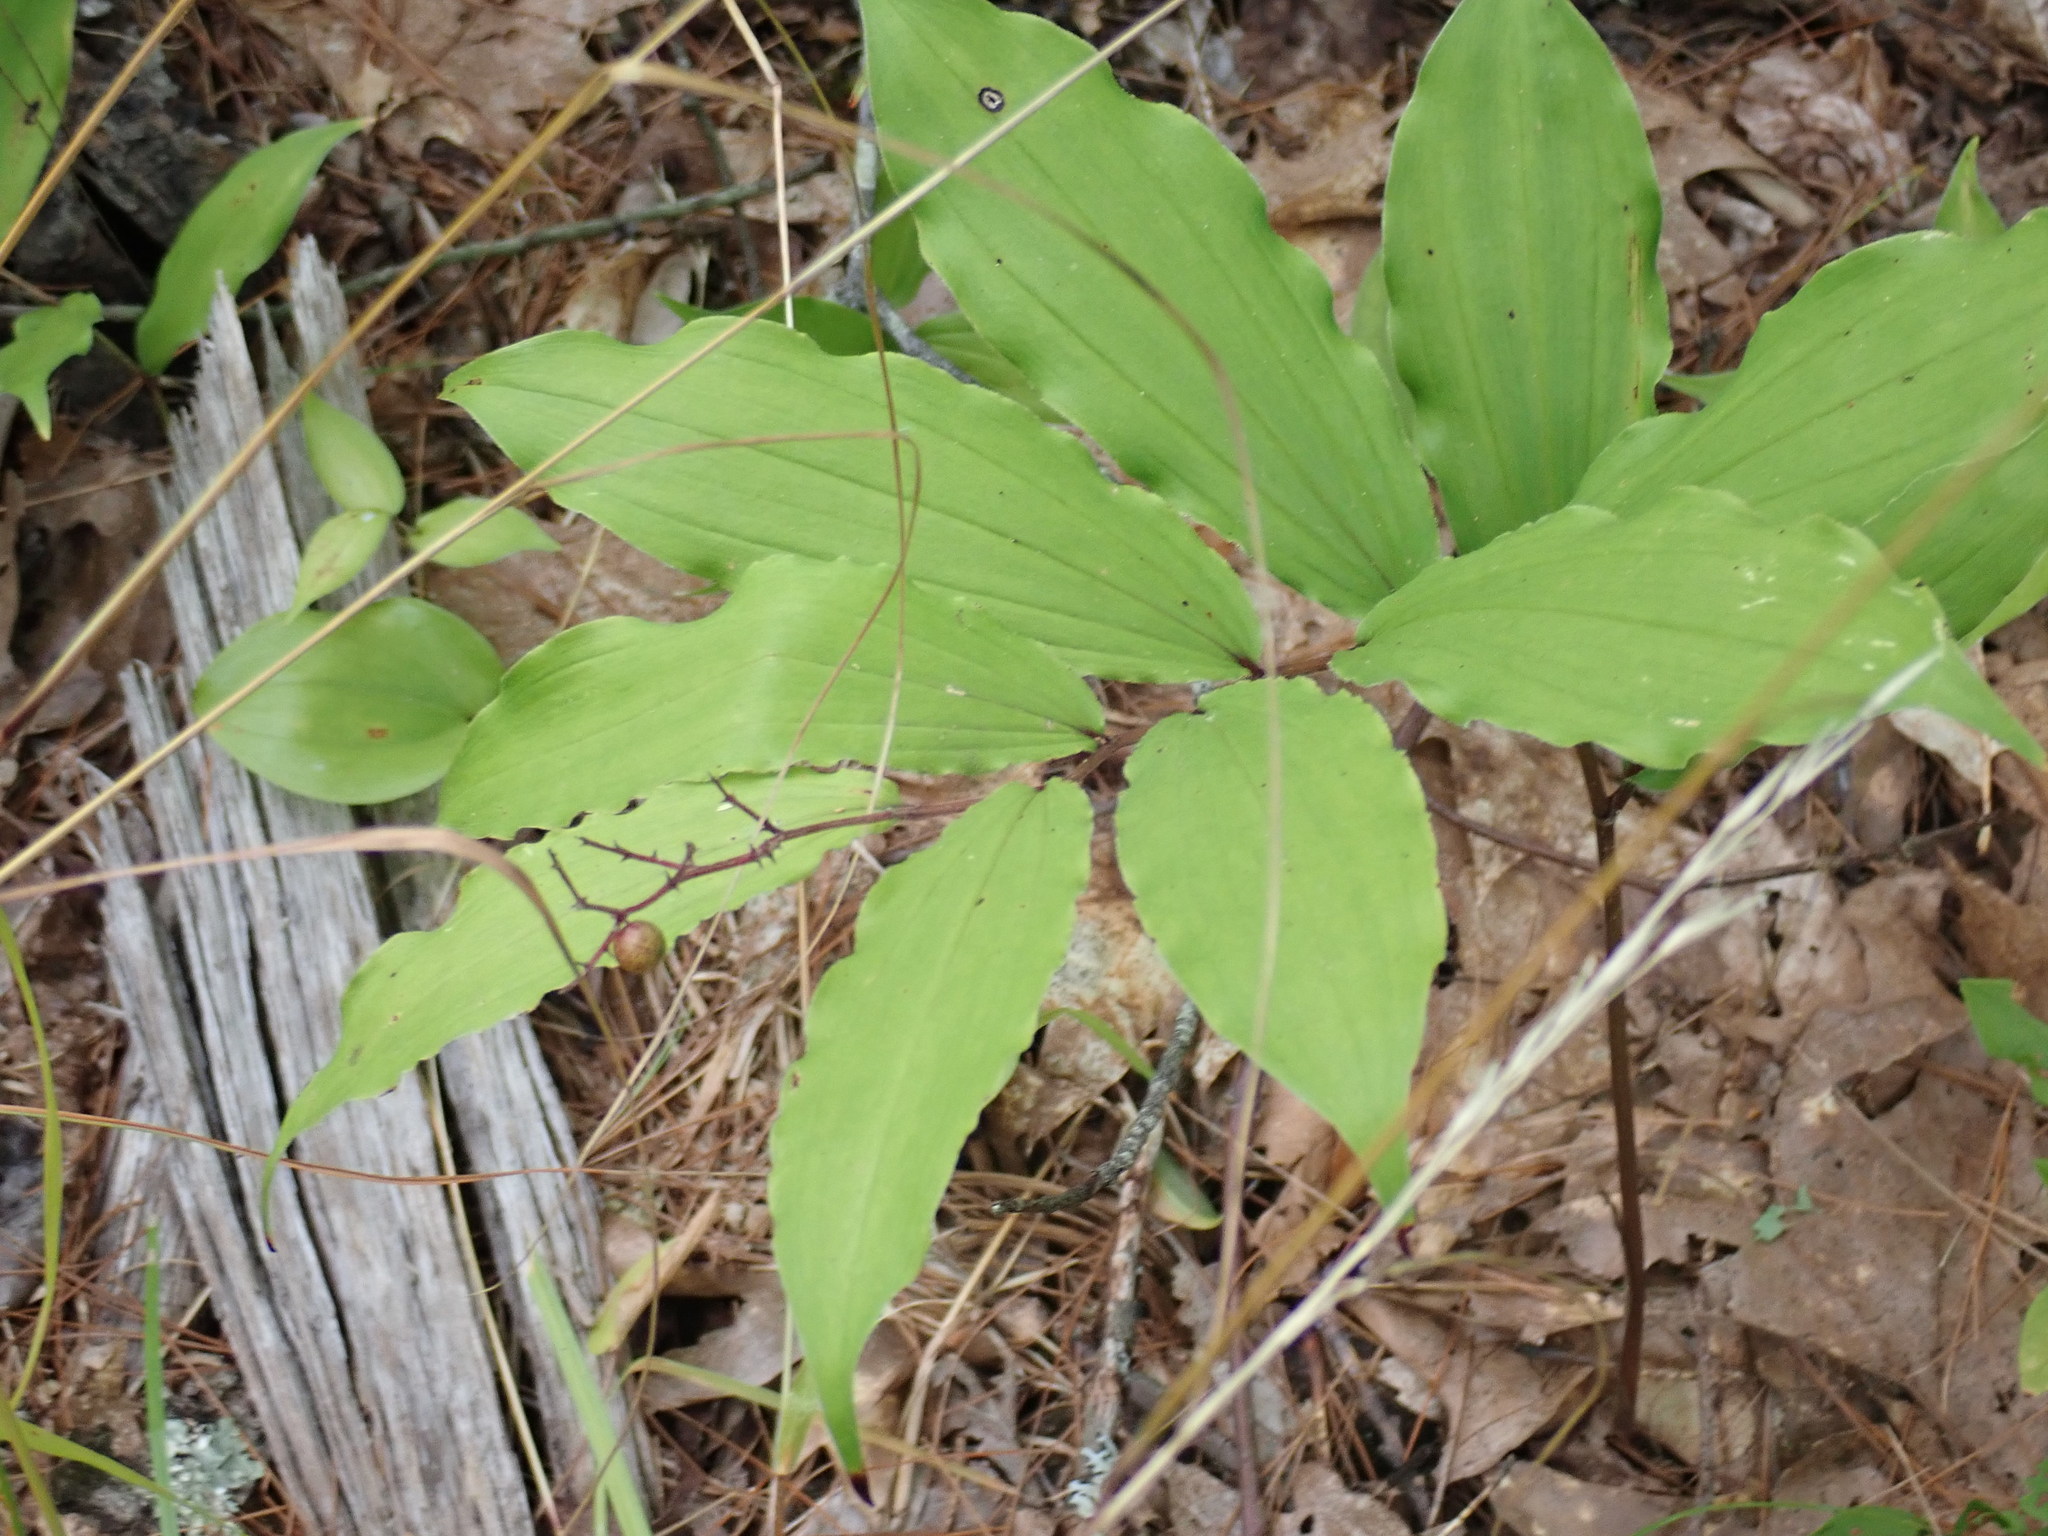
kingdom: Plantae
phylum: Tracheophyta
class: Liliopsida
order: Asparagales
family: Asparagaceae
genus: Maianthemum
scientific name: Maianthemum racemosum
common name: False spikenard
